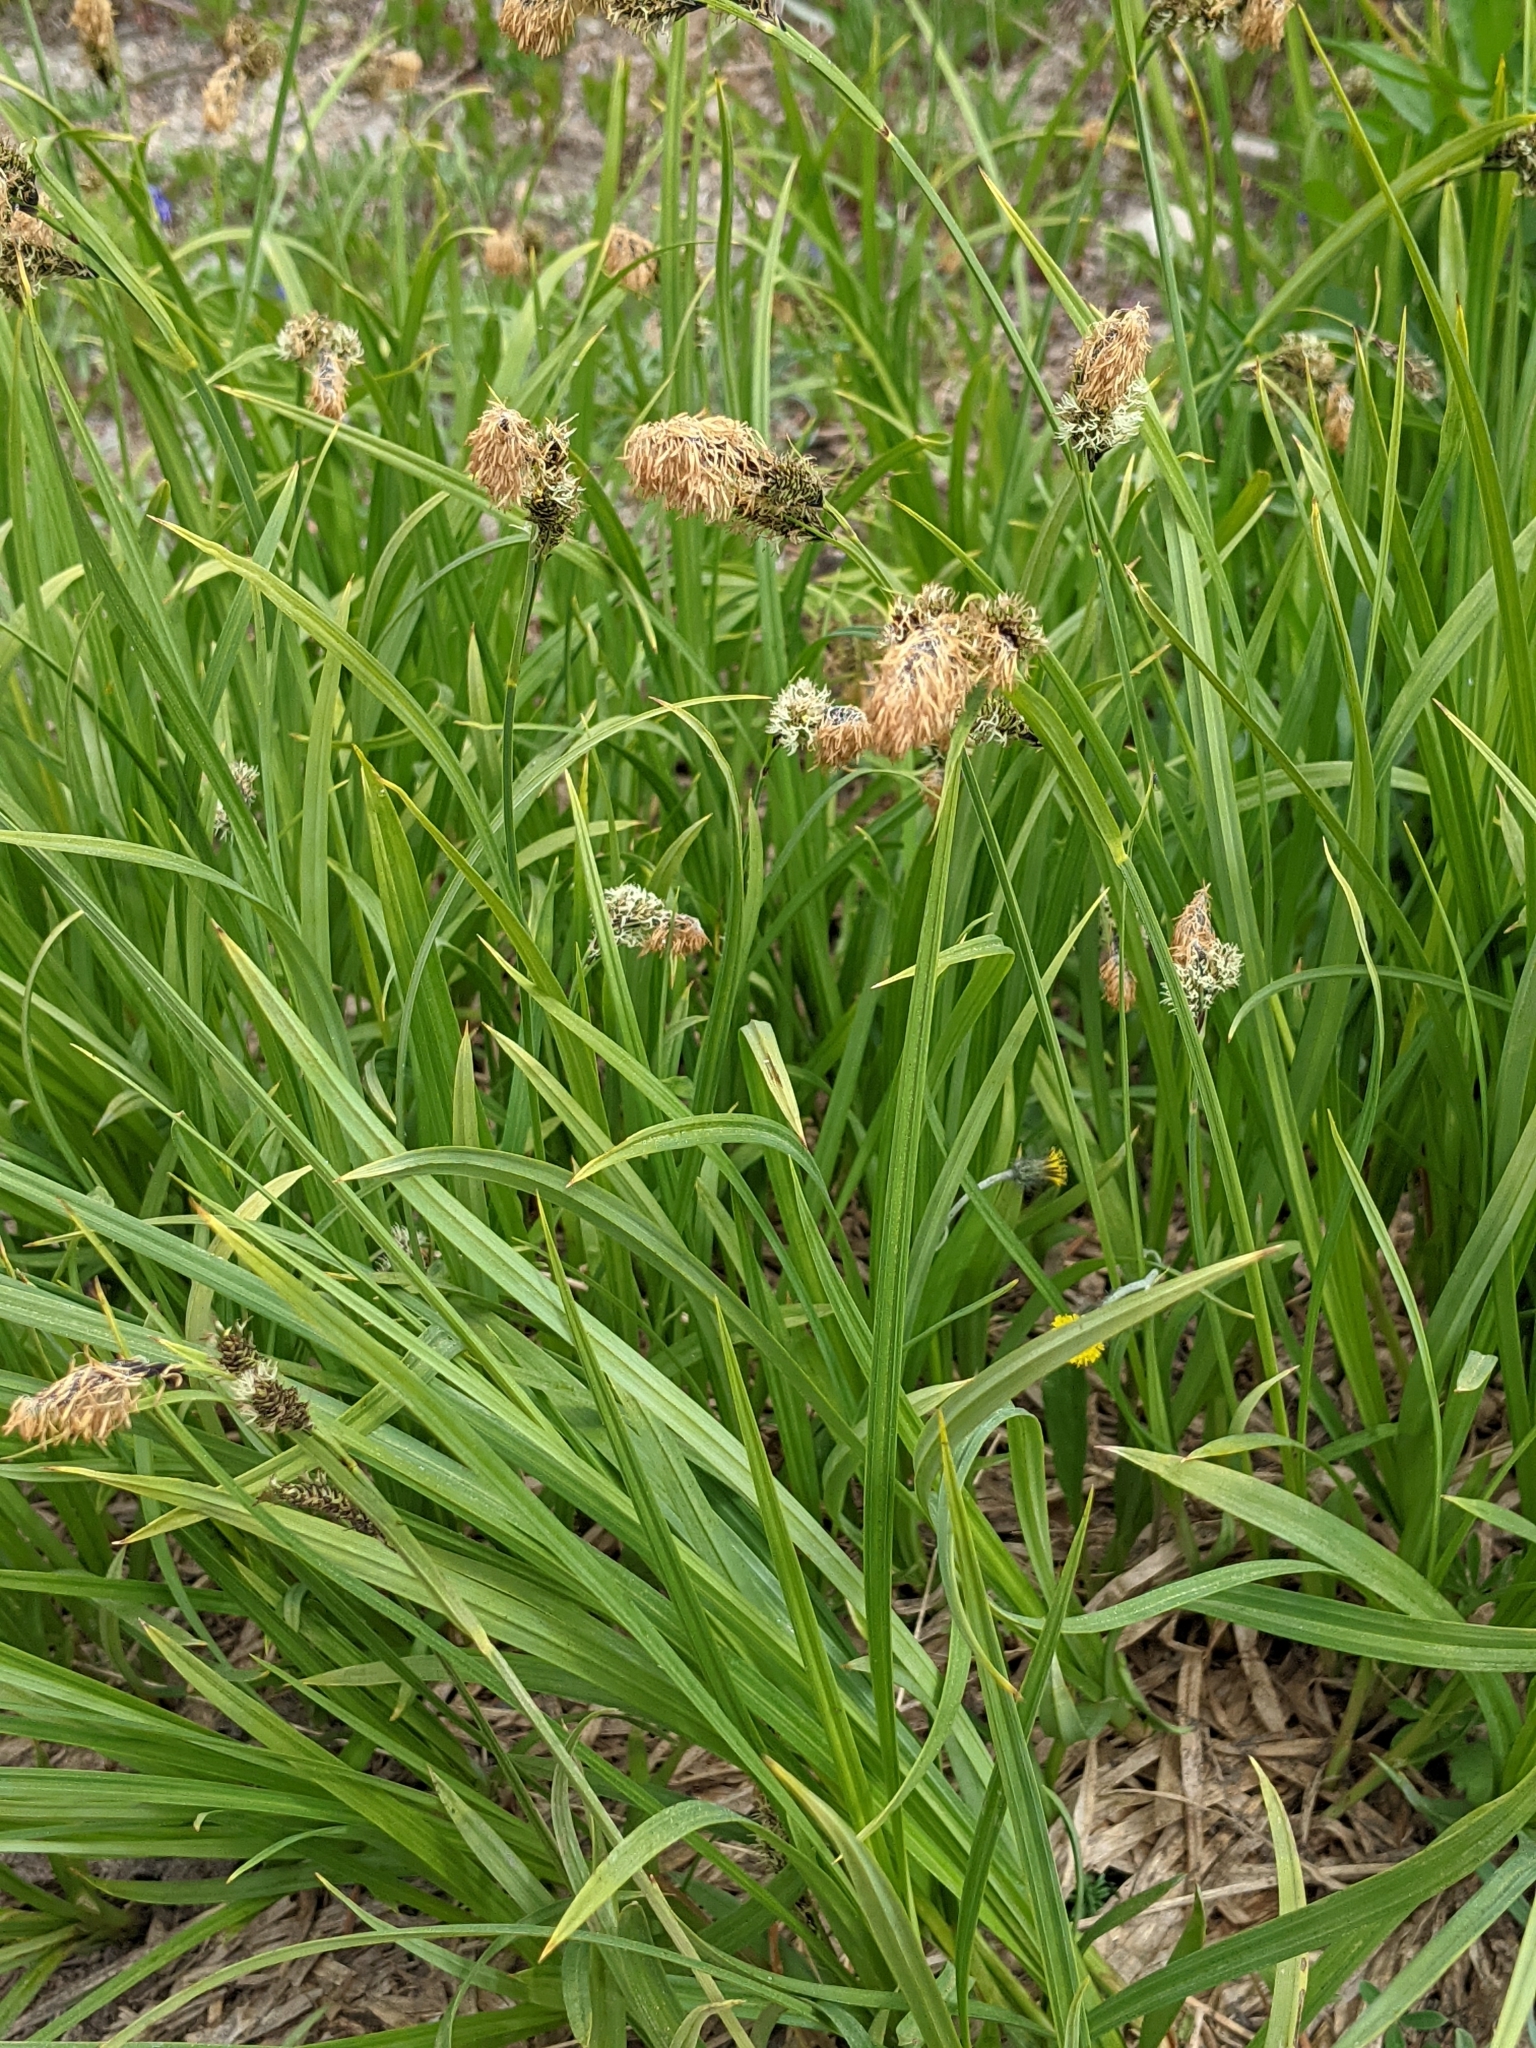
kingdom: Plantae
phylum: Tracheophyta
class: Liliopsida
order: Poales
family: Cyperaceae
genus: Carex
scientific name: Carex spectabilis
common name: Northwestern showy sedge
